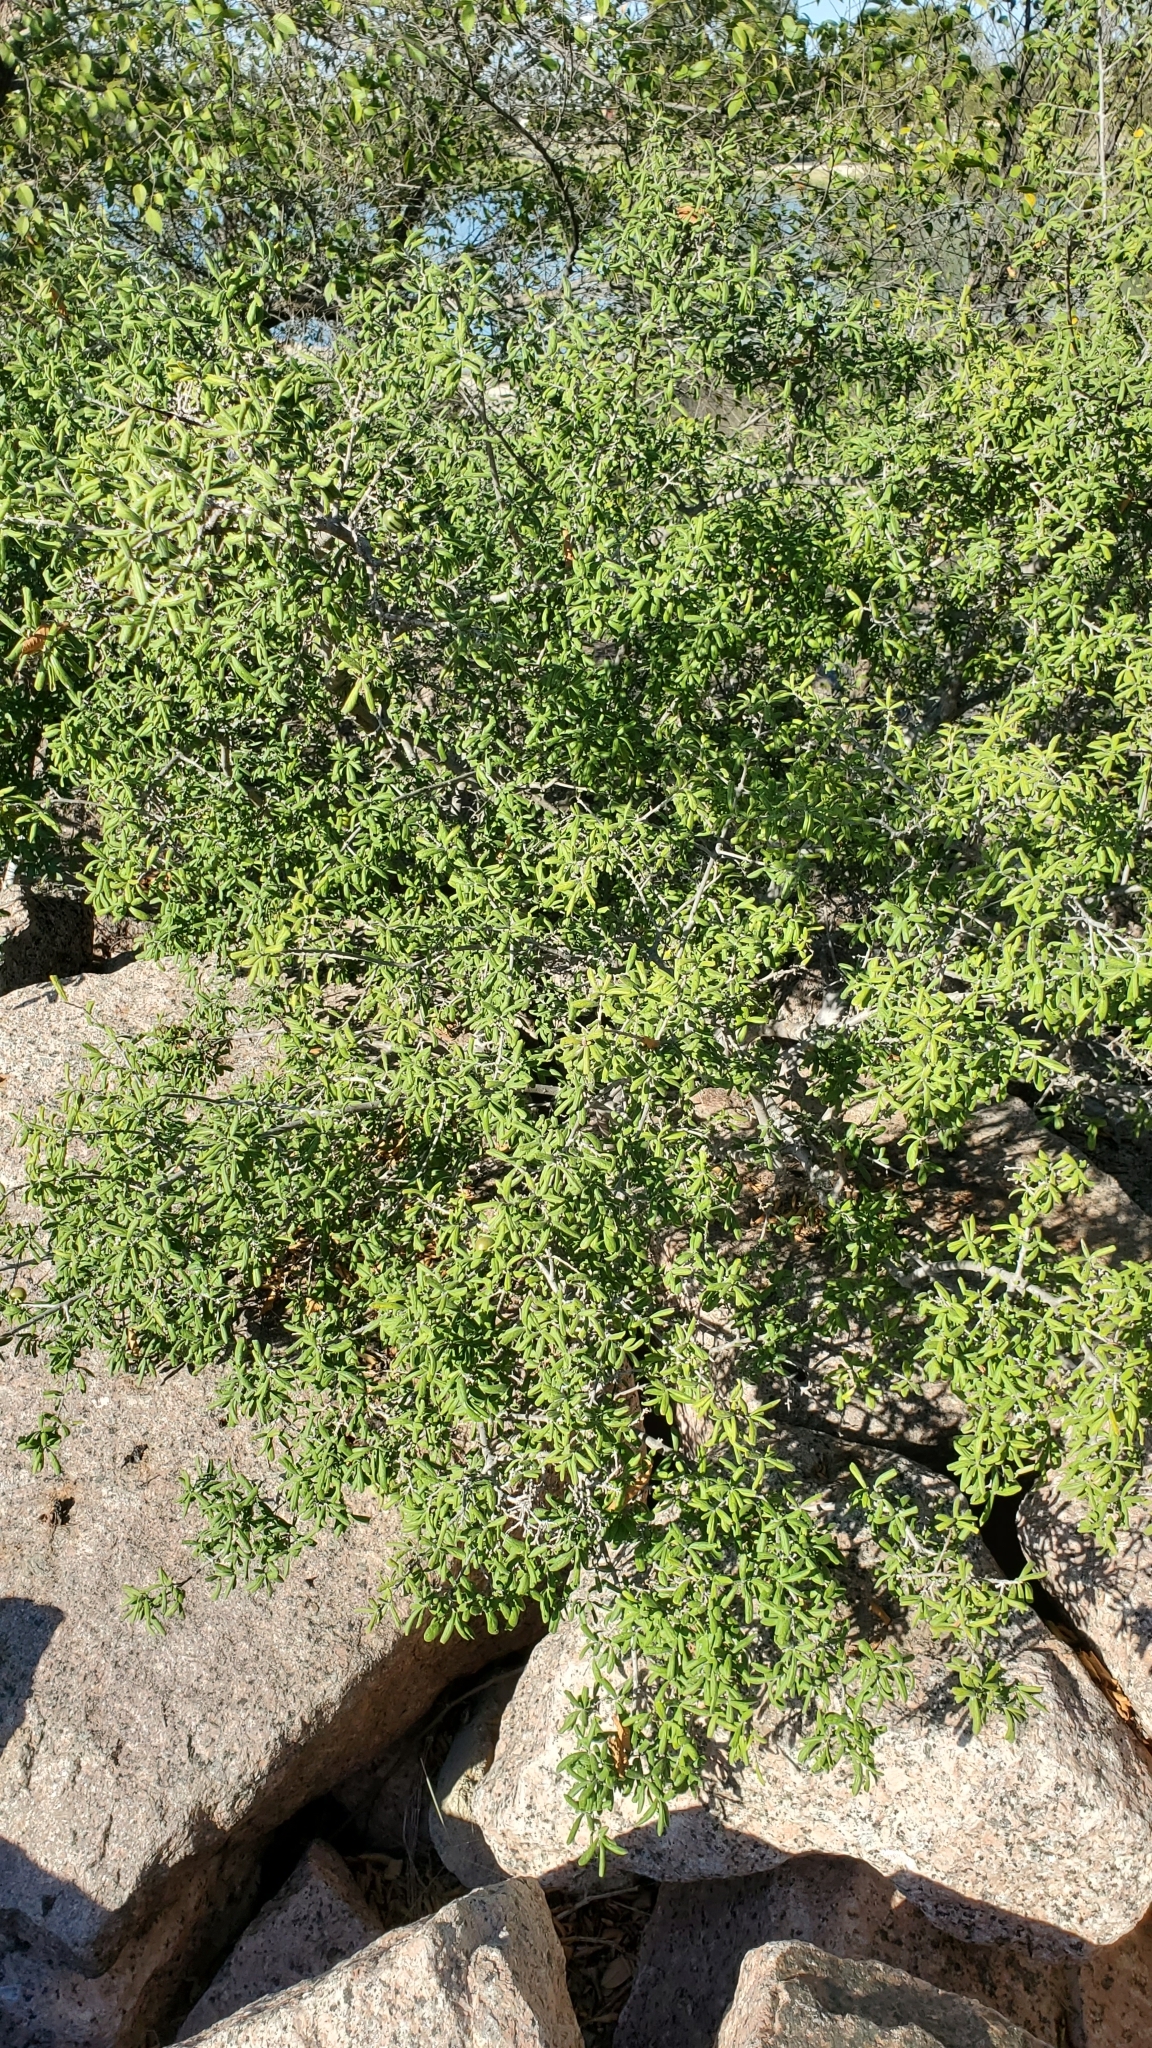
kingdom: Plantae
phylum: Tracheophyta
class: Magnoliopsida
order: Ericales
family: Ebenaceae
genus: Diospyros
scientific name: Diospyros texana
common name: Texas persimmon
